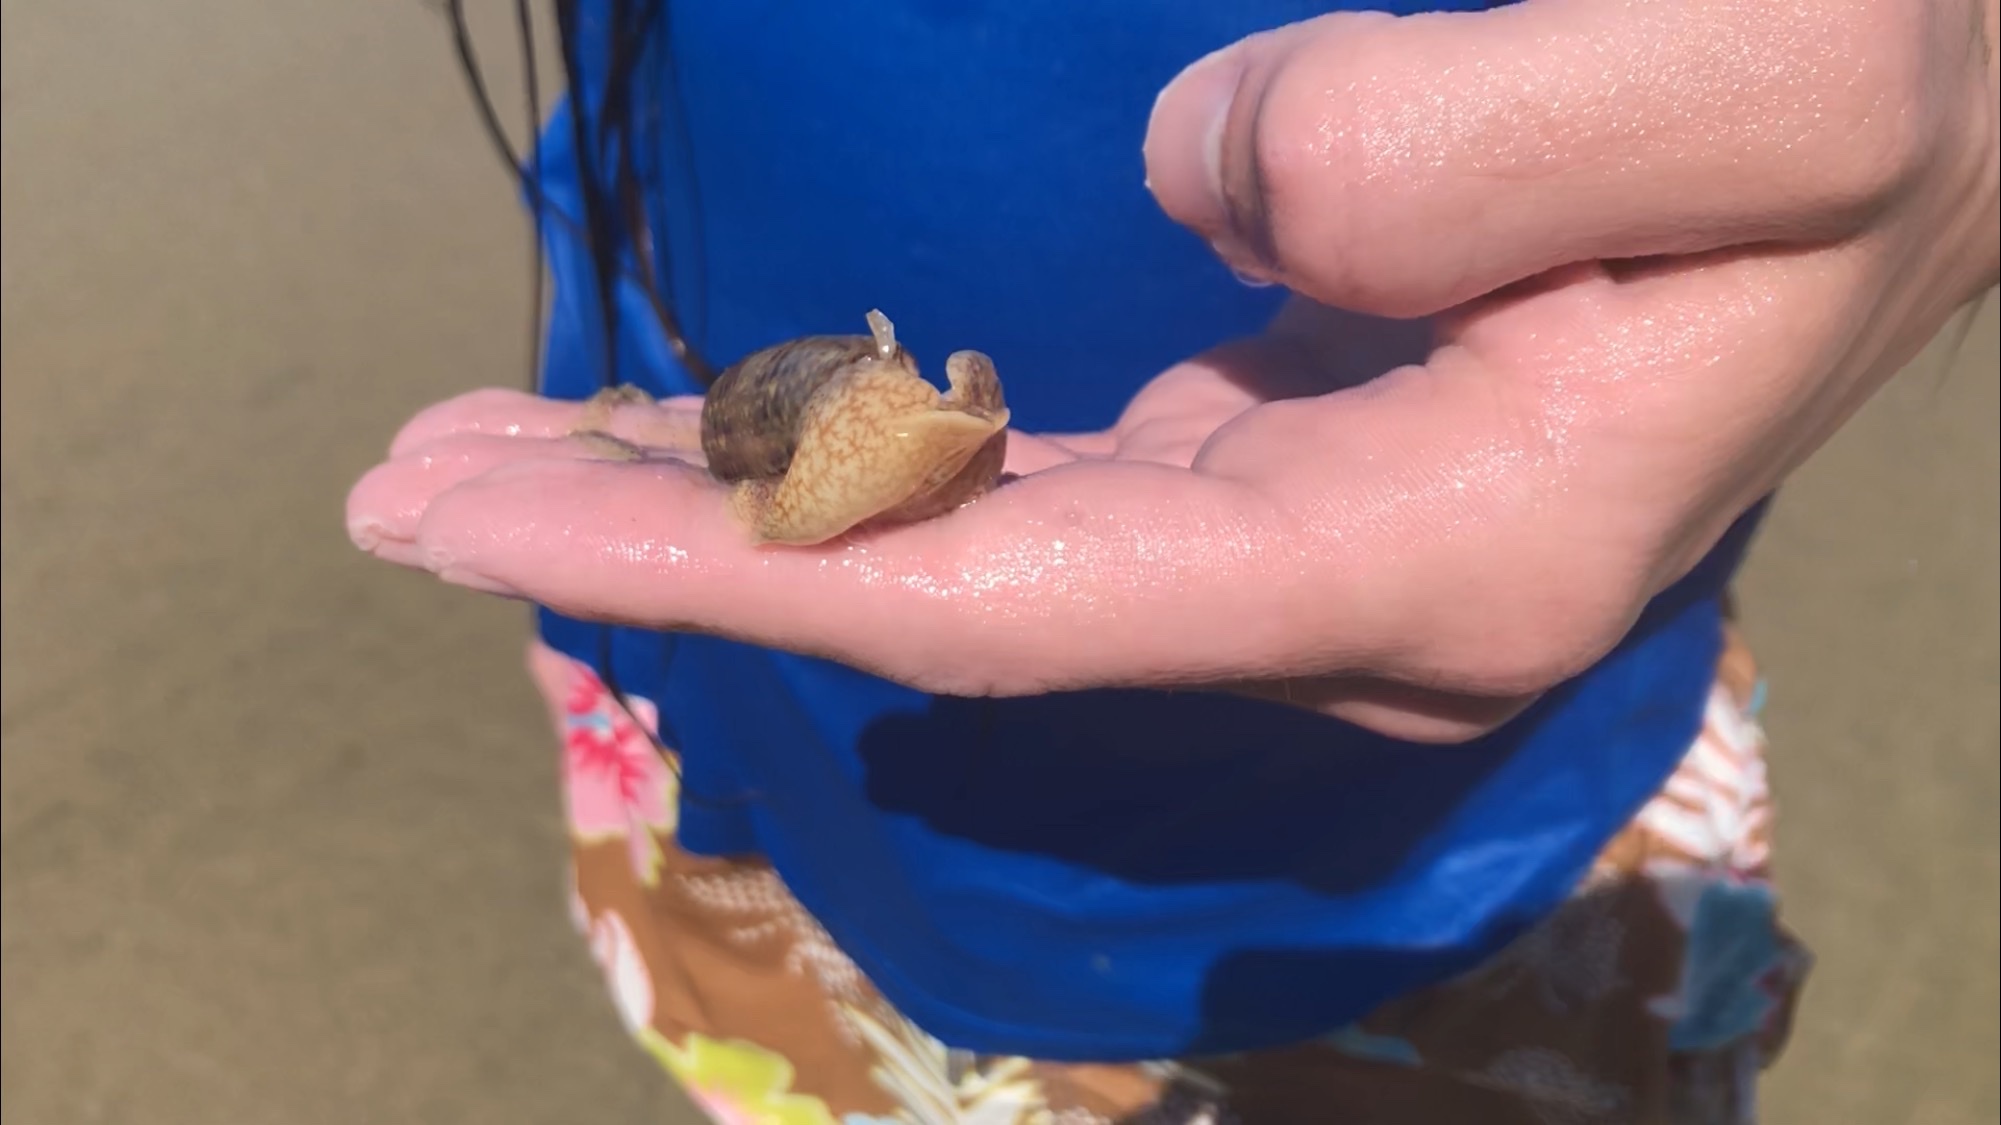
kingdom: Animalia
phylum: Mollusca
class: Gastropoda
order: Neogastropoda
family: Olividae
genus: Oliva
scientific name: Oliva sayana
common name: Lettered olive
